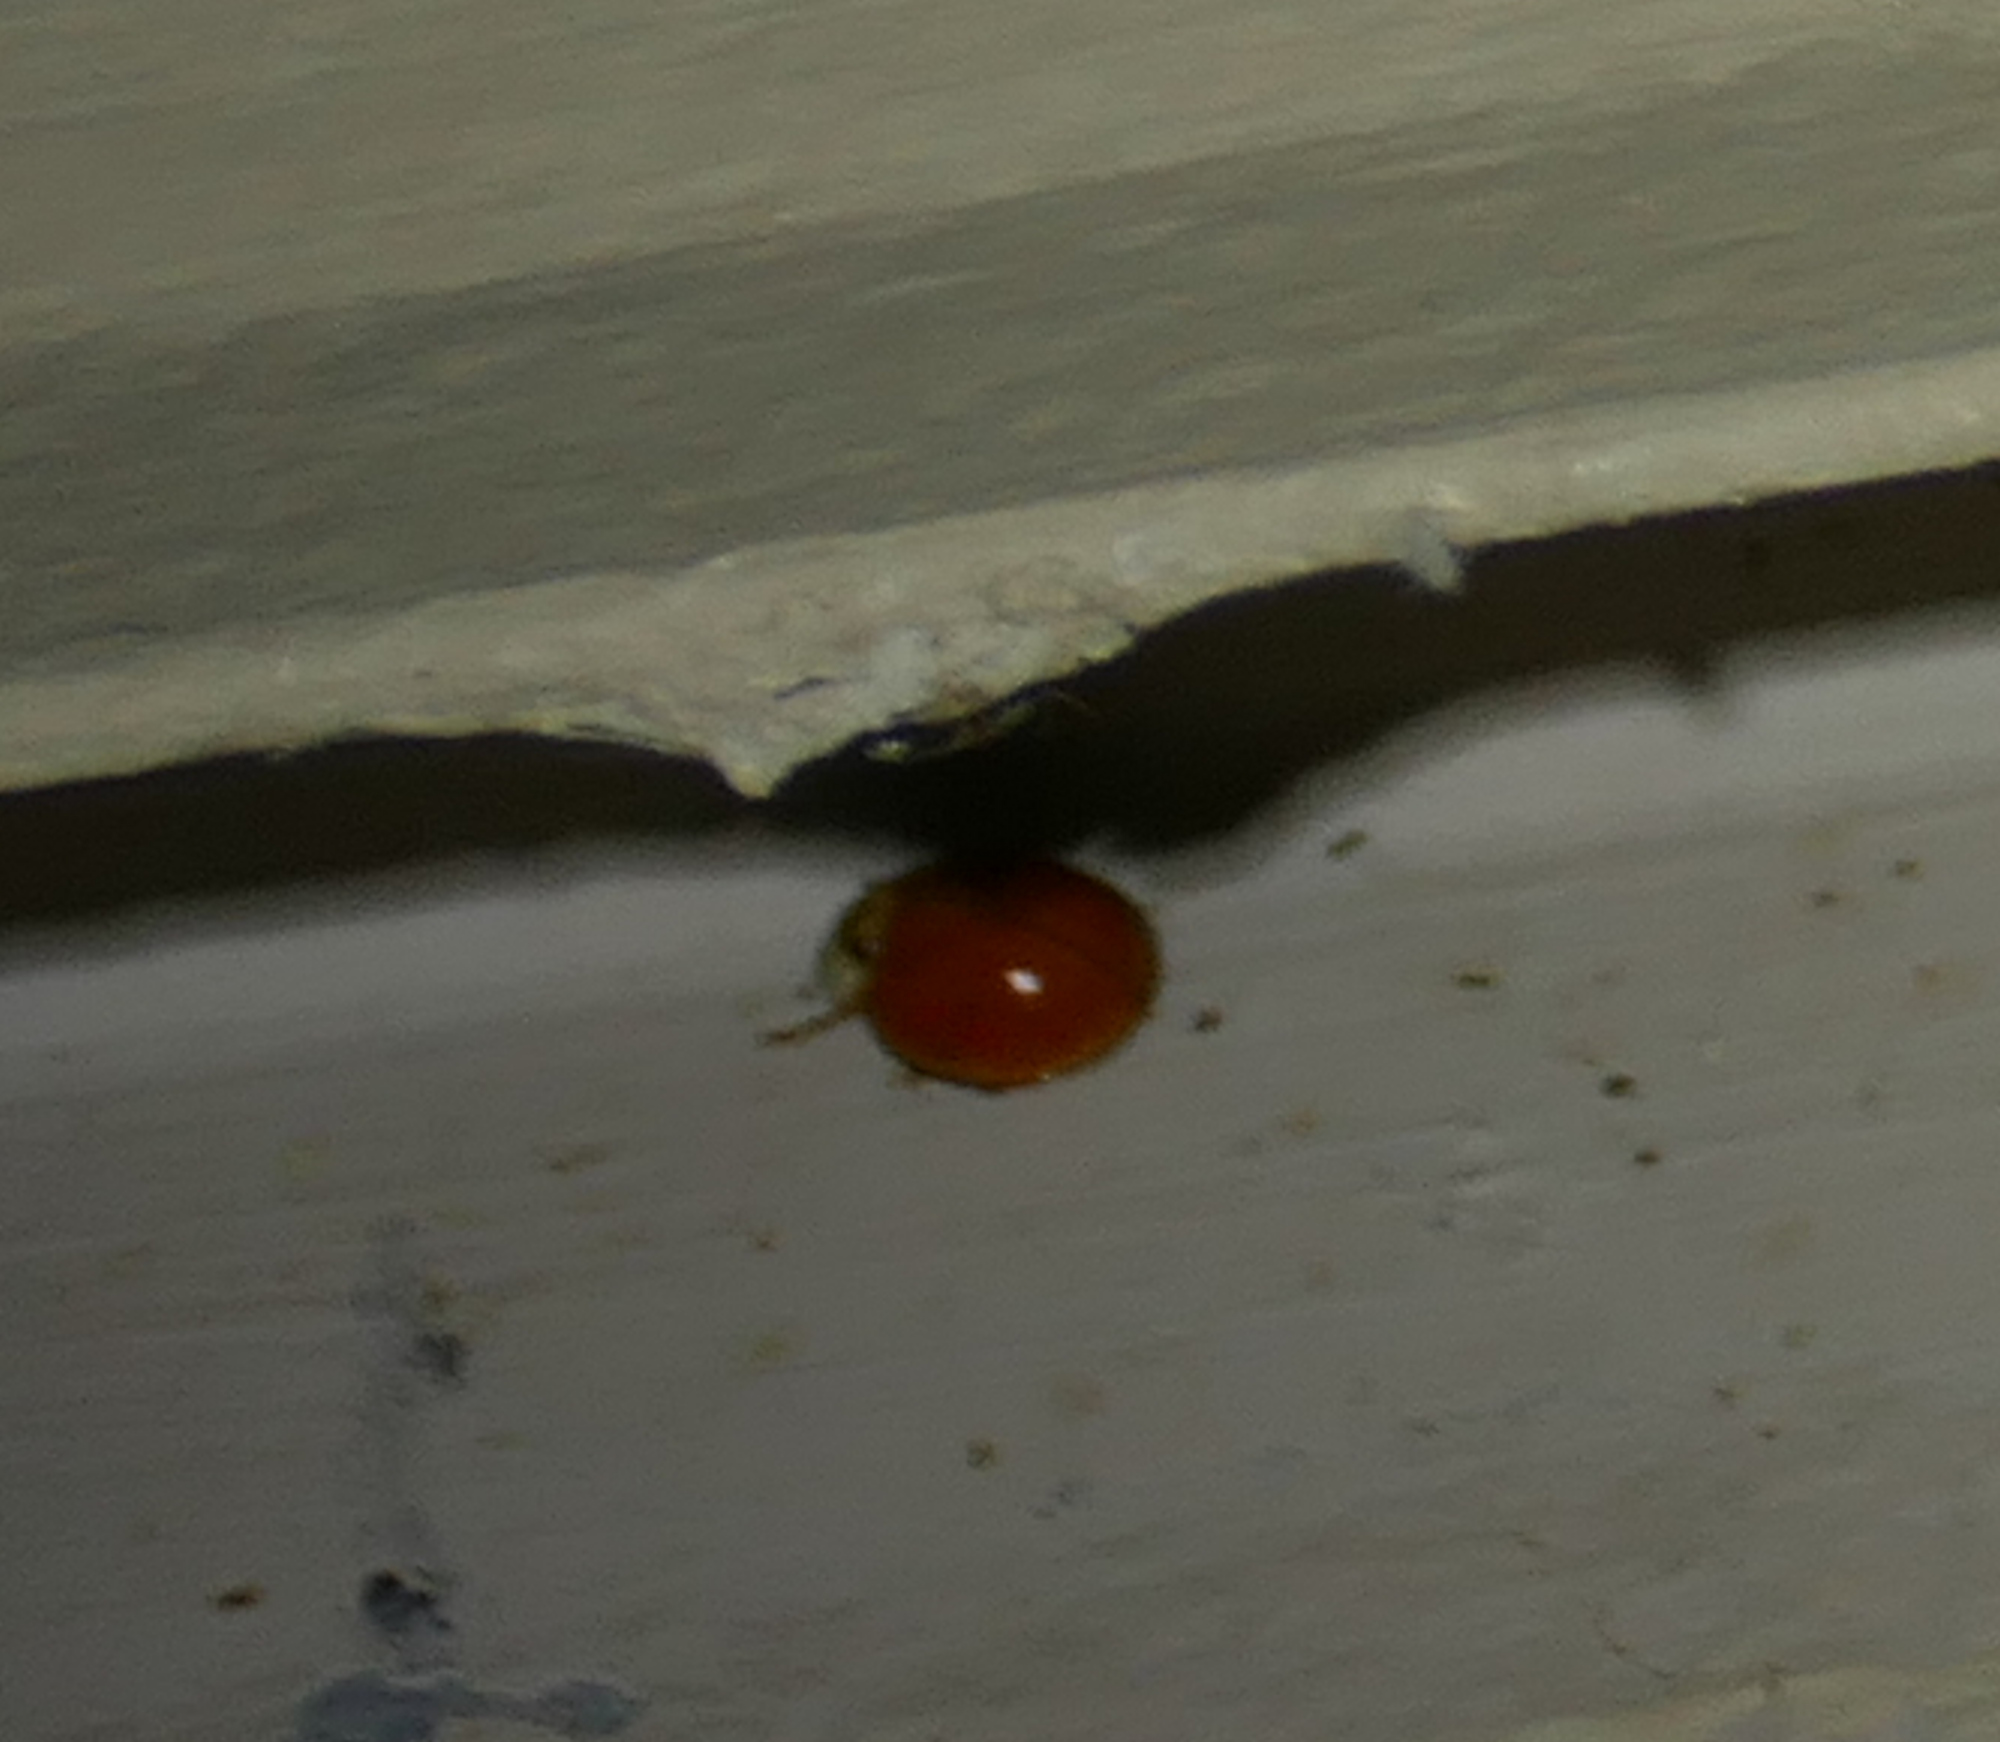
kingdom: Animalia
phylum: Arthropoda
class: Insecta
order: Coleoptera
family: Coccinellidae
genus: Harmonia
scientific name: Harmonia axyridis
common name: Harlequin ladybird
